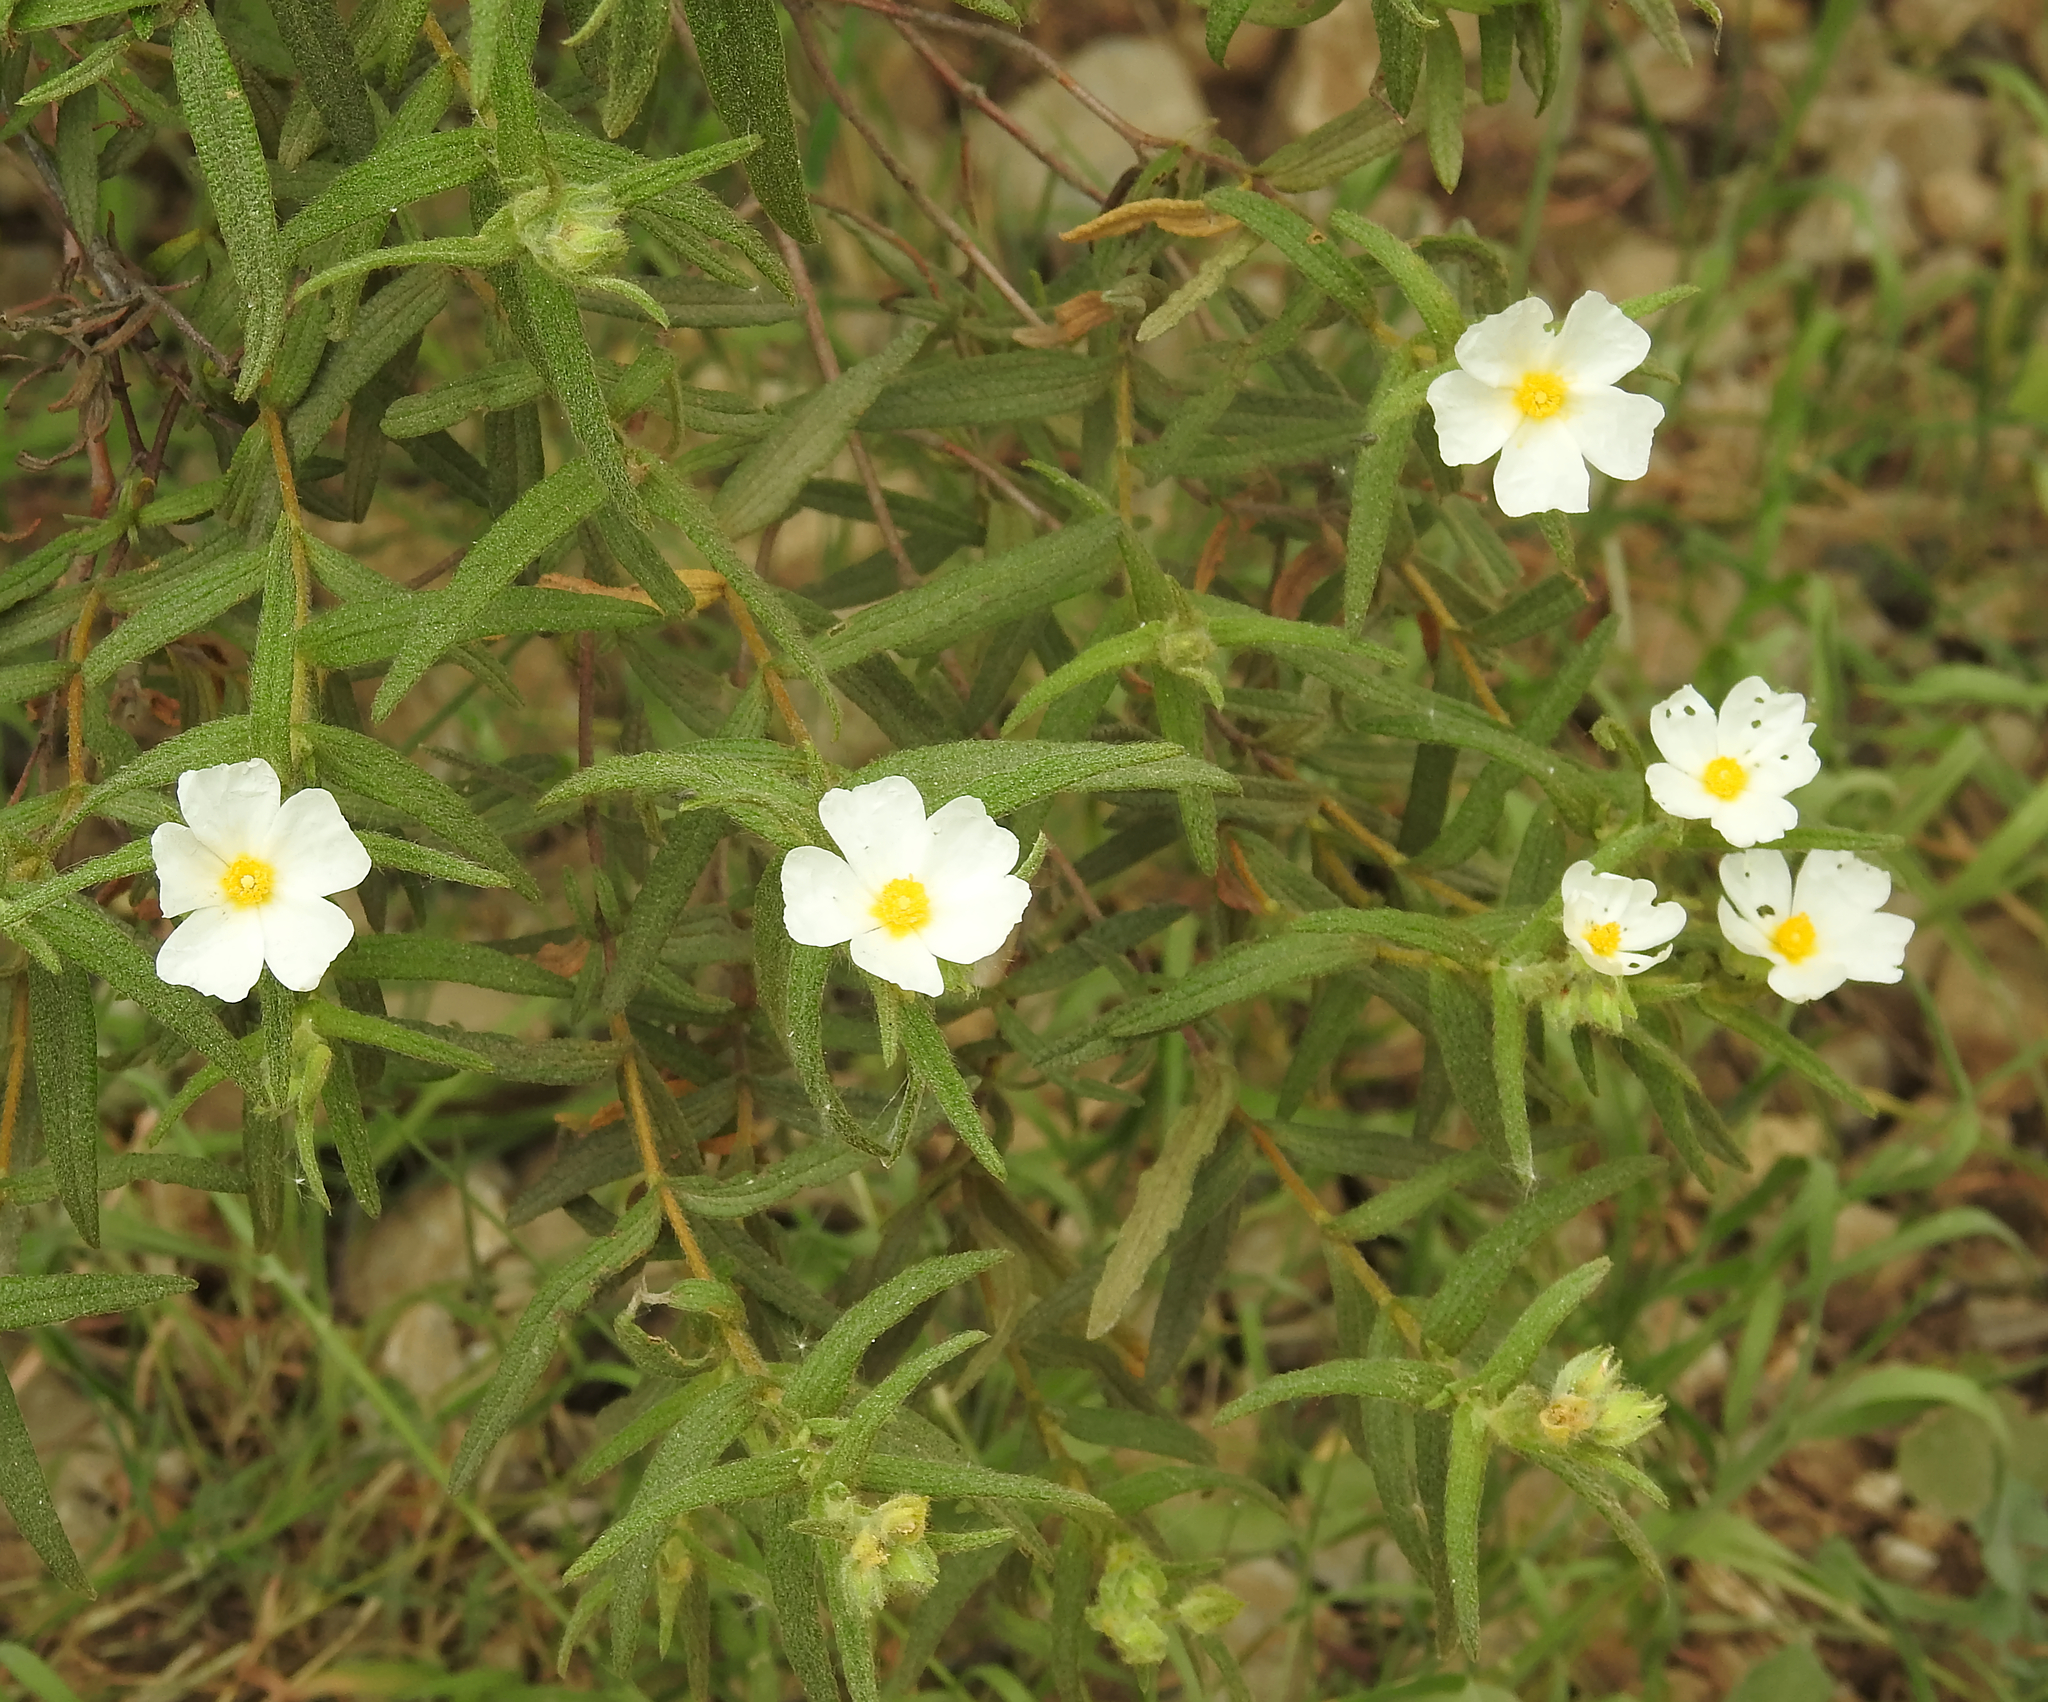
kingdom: Plantae
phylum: Tracheophyta
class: Magnoliopsida
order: Malvales
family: Cistaceae
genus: Cistus
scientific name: Cistus monspeliensis
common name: Montpelier cistus
